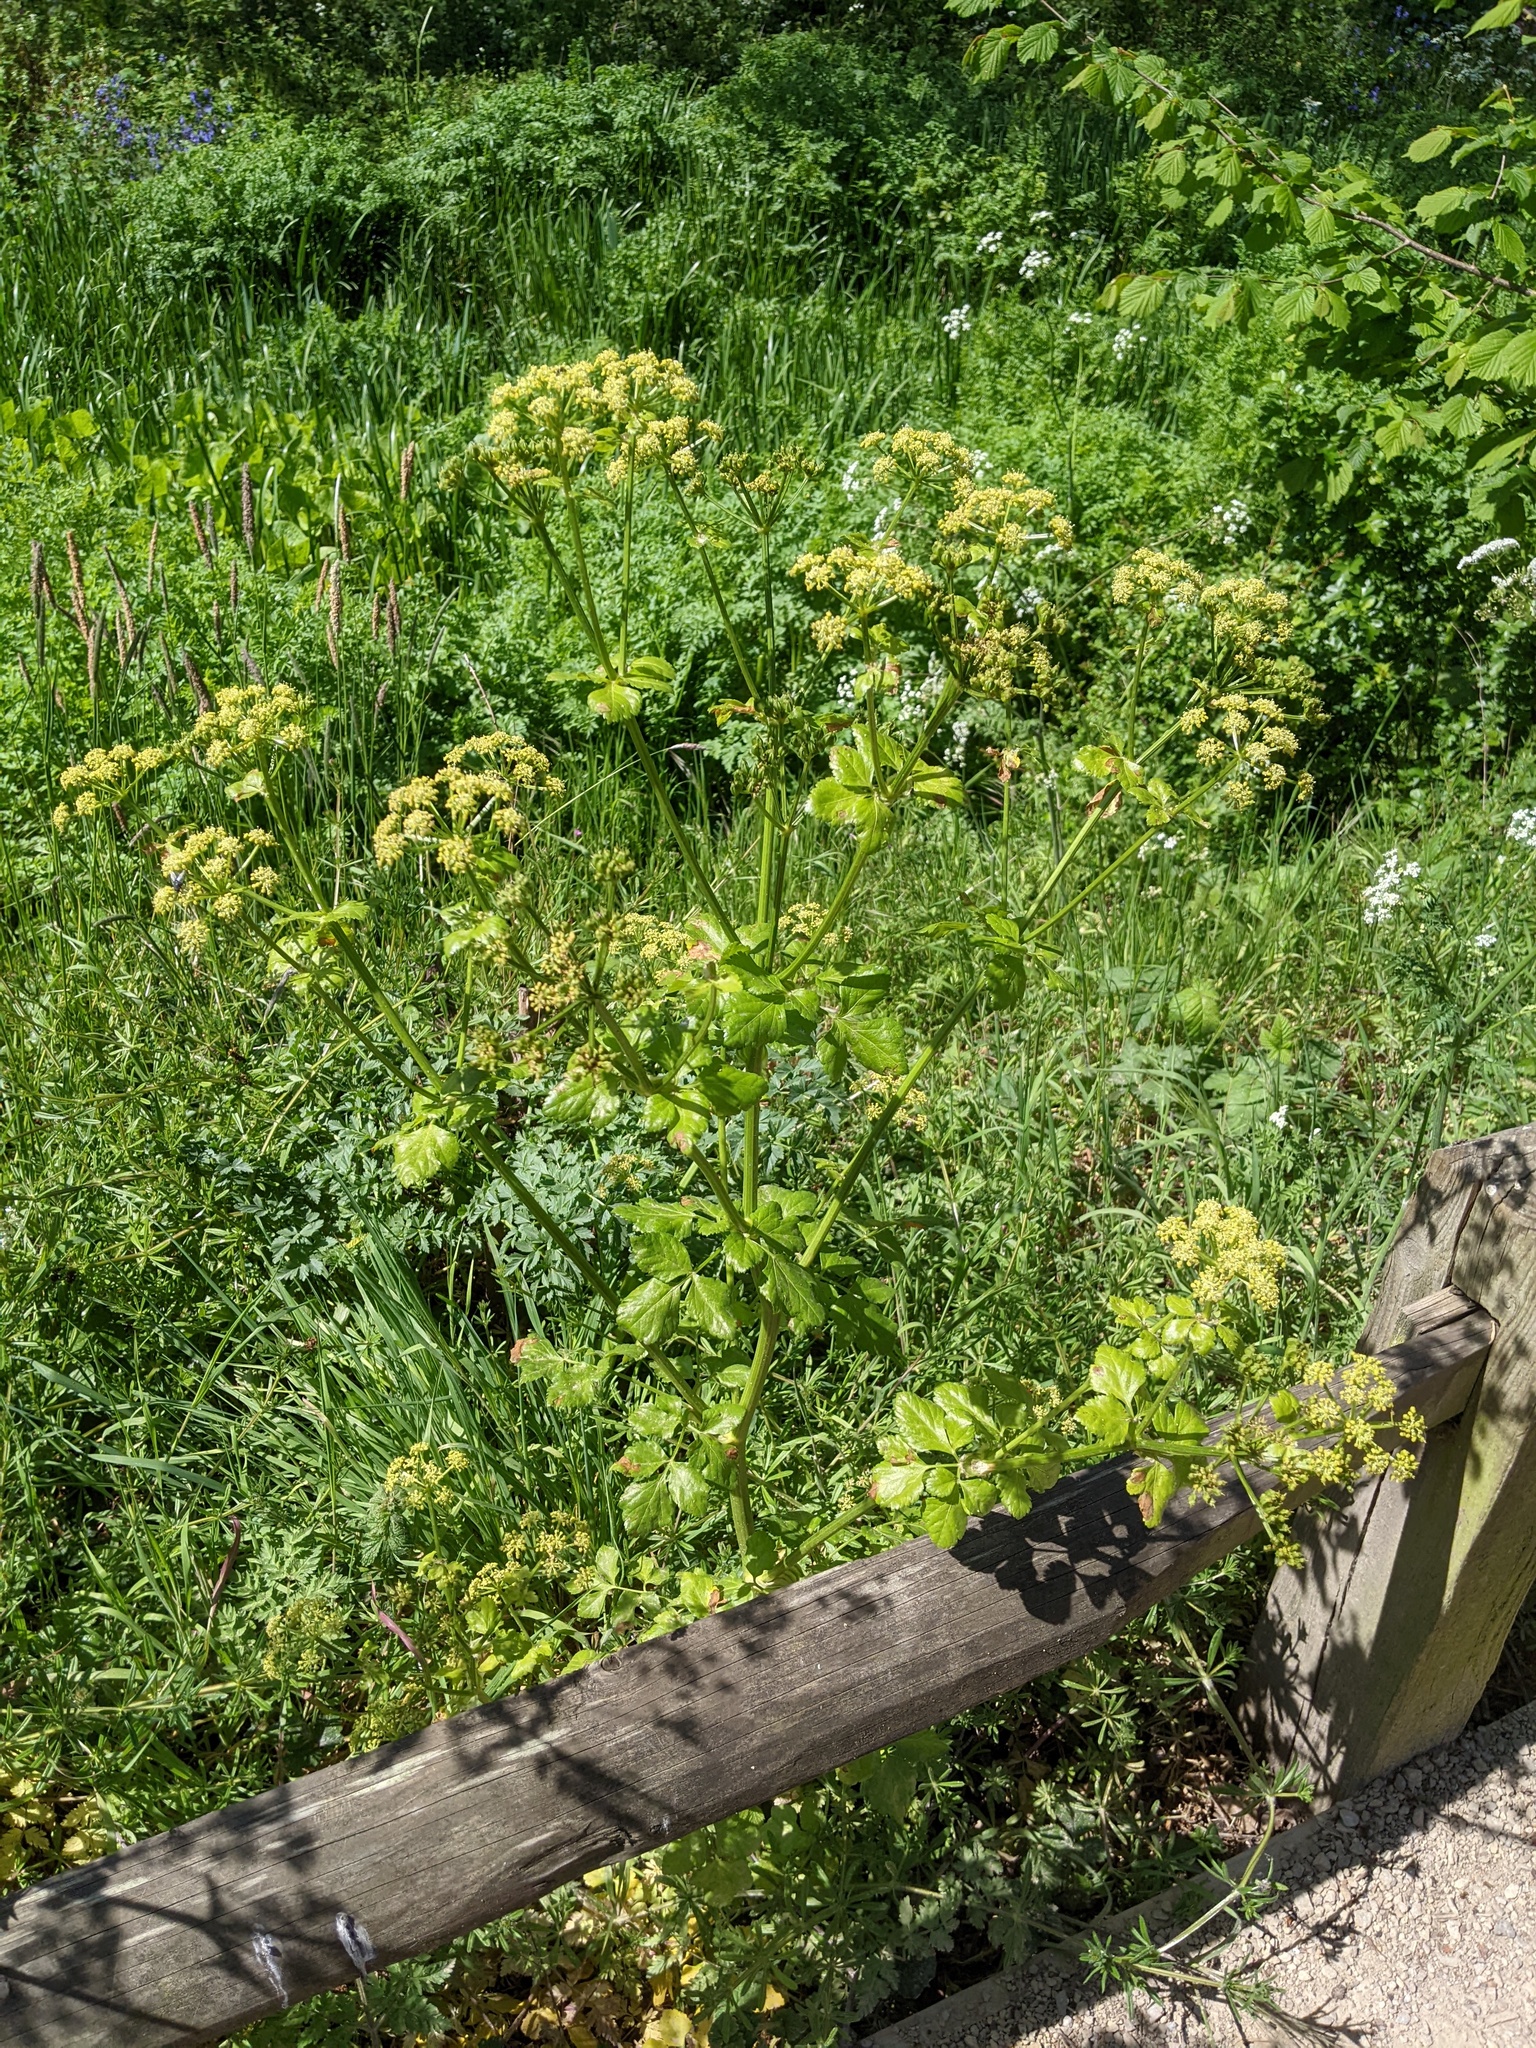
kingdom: Plantae
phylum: Tracheophyta
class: Magnoliopsida
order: Apiales
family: Apiaceae
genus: Smyrnium
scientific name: Smyrnium olusatrum
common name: Alexanders
